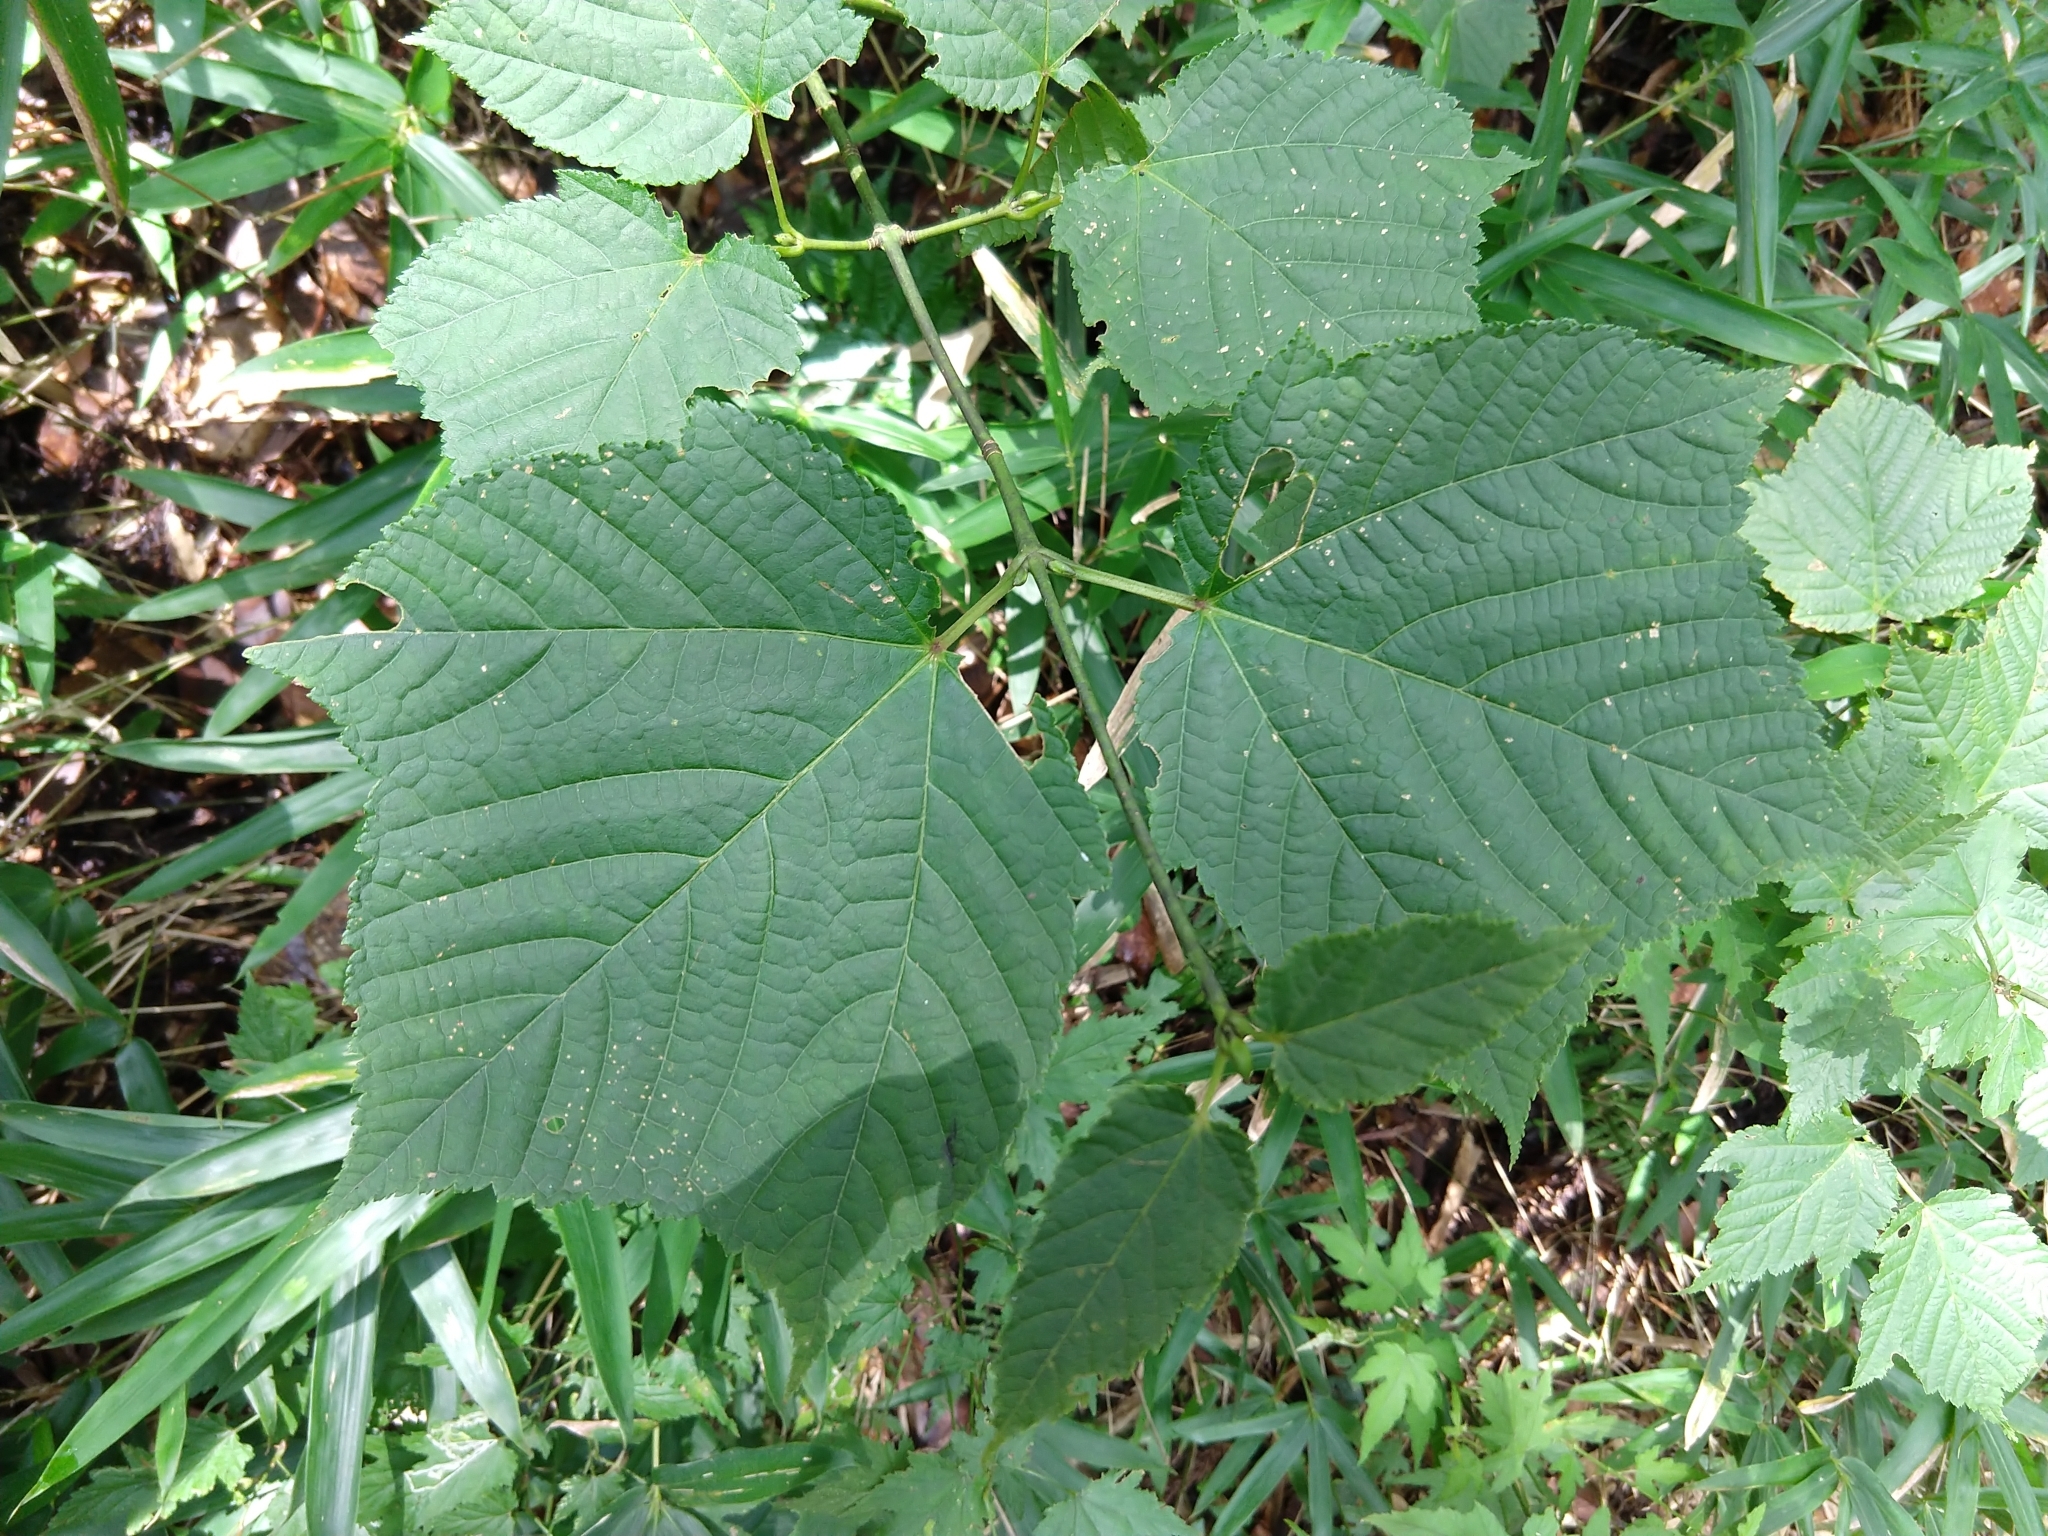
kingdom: Plantae
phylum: Tracheophyta
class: Magnoliopsida
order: Sapindales
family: Sapindaceae
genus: Acer
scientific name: Acer rufinerve
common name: Red veined maple
